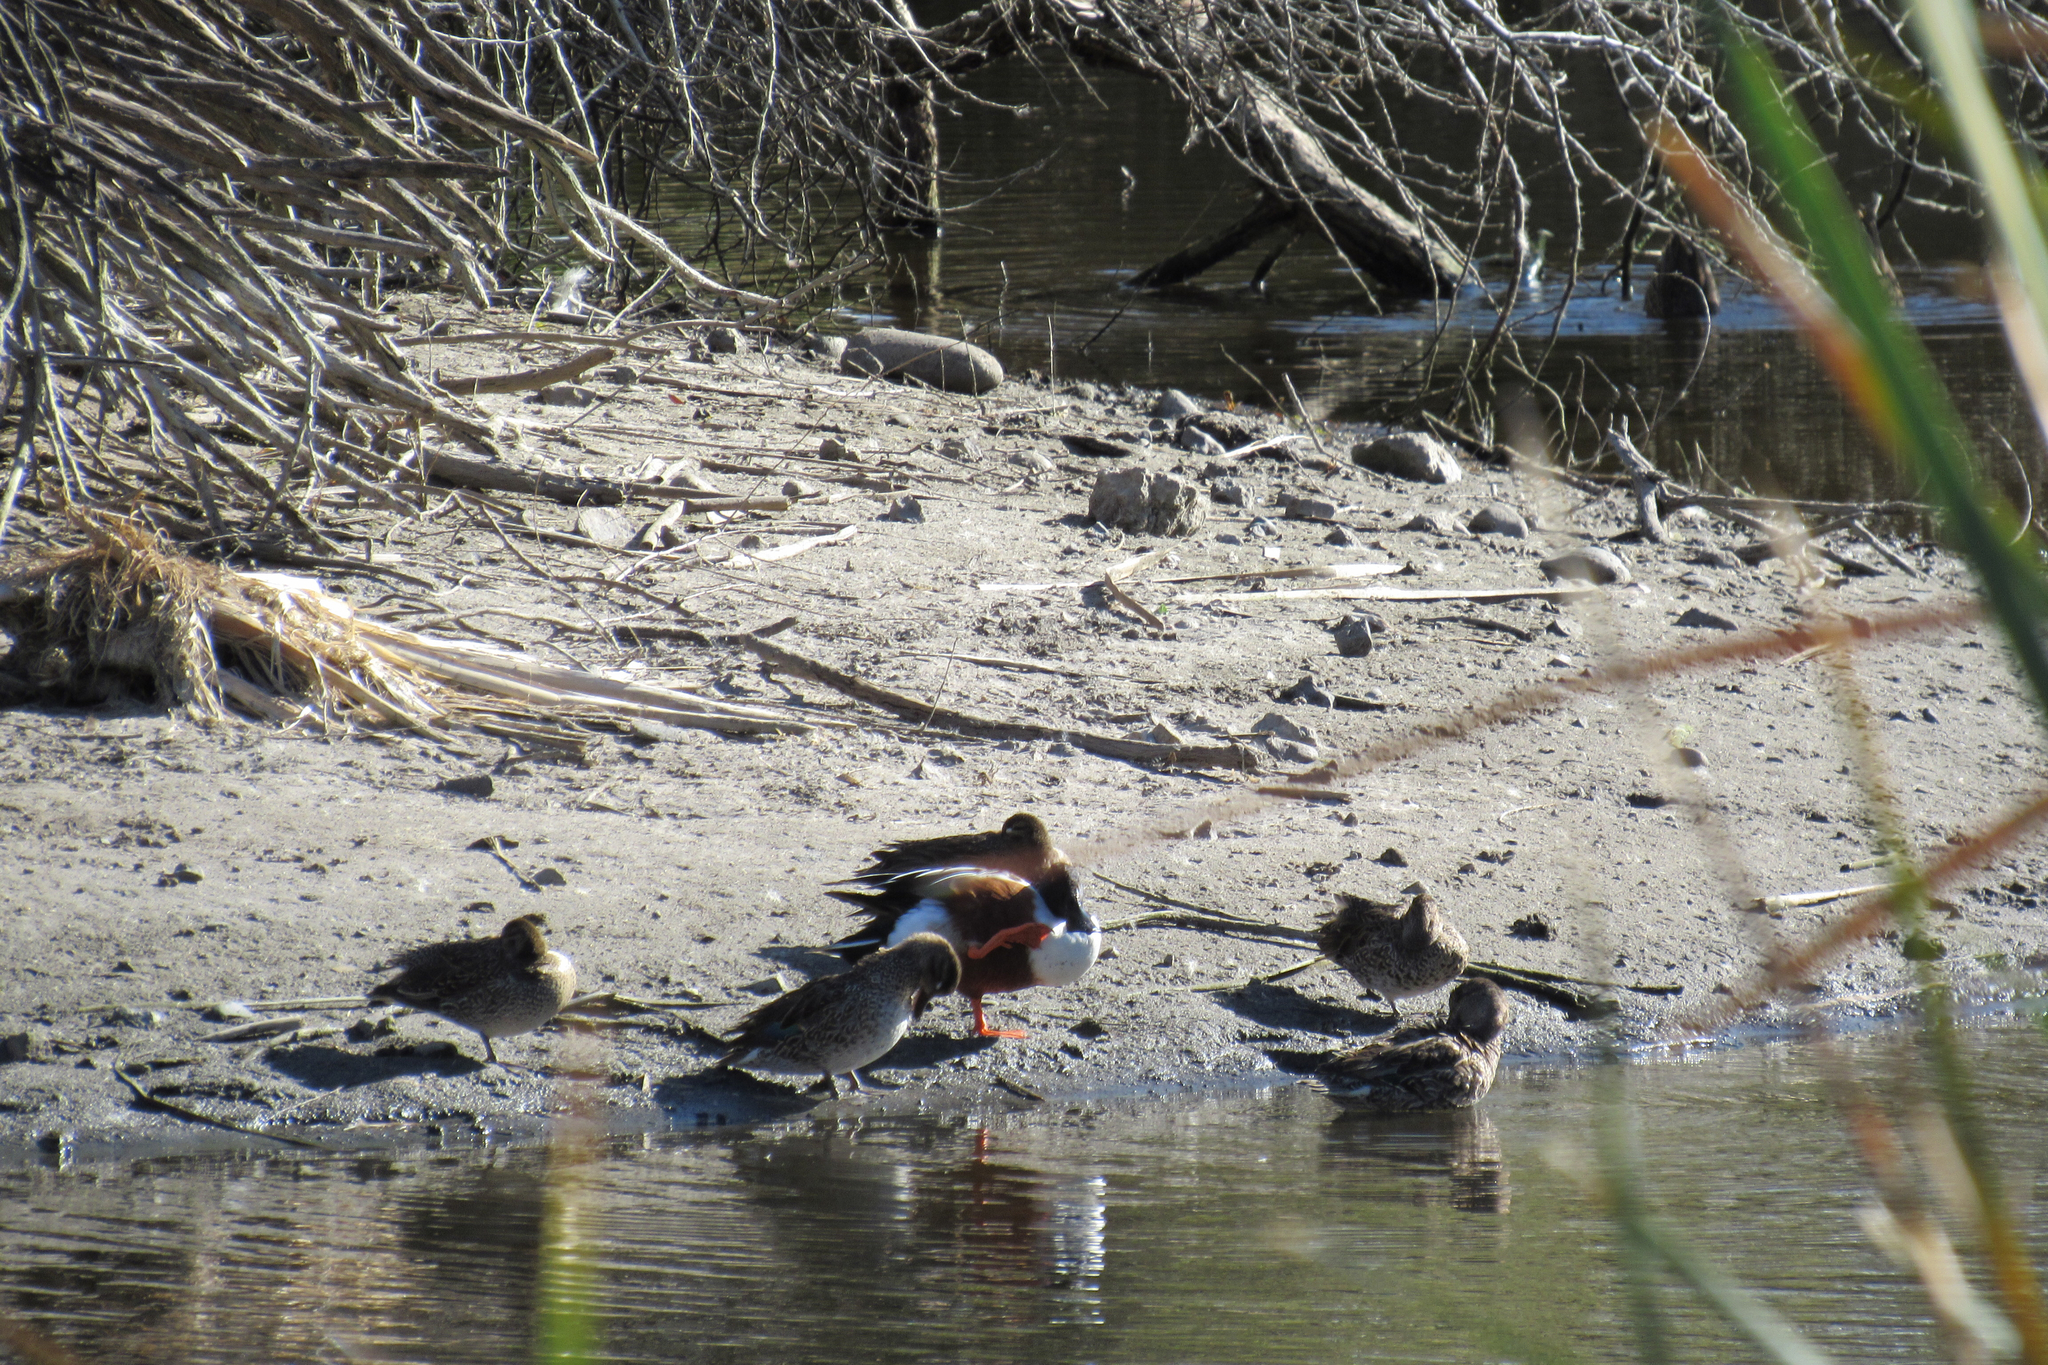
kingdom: Animalia
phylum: Chordata
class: Aves
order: Anseriformes
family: Anatidae
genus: Spatula
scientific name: Spatula clypeata
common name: Northern shoveler
